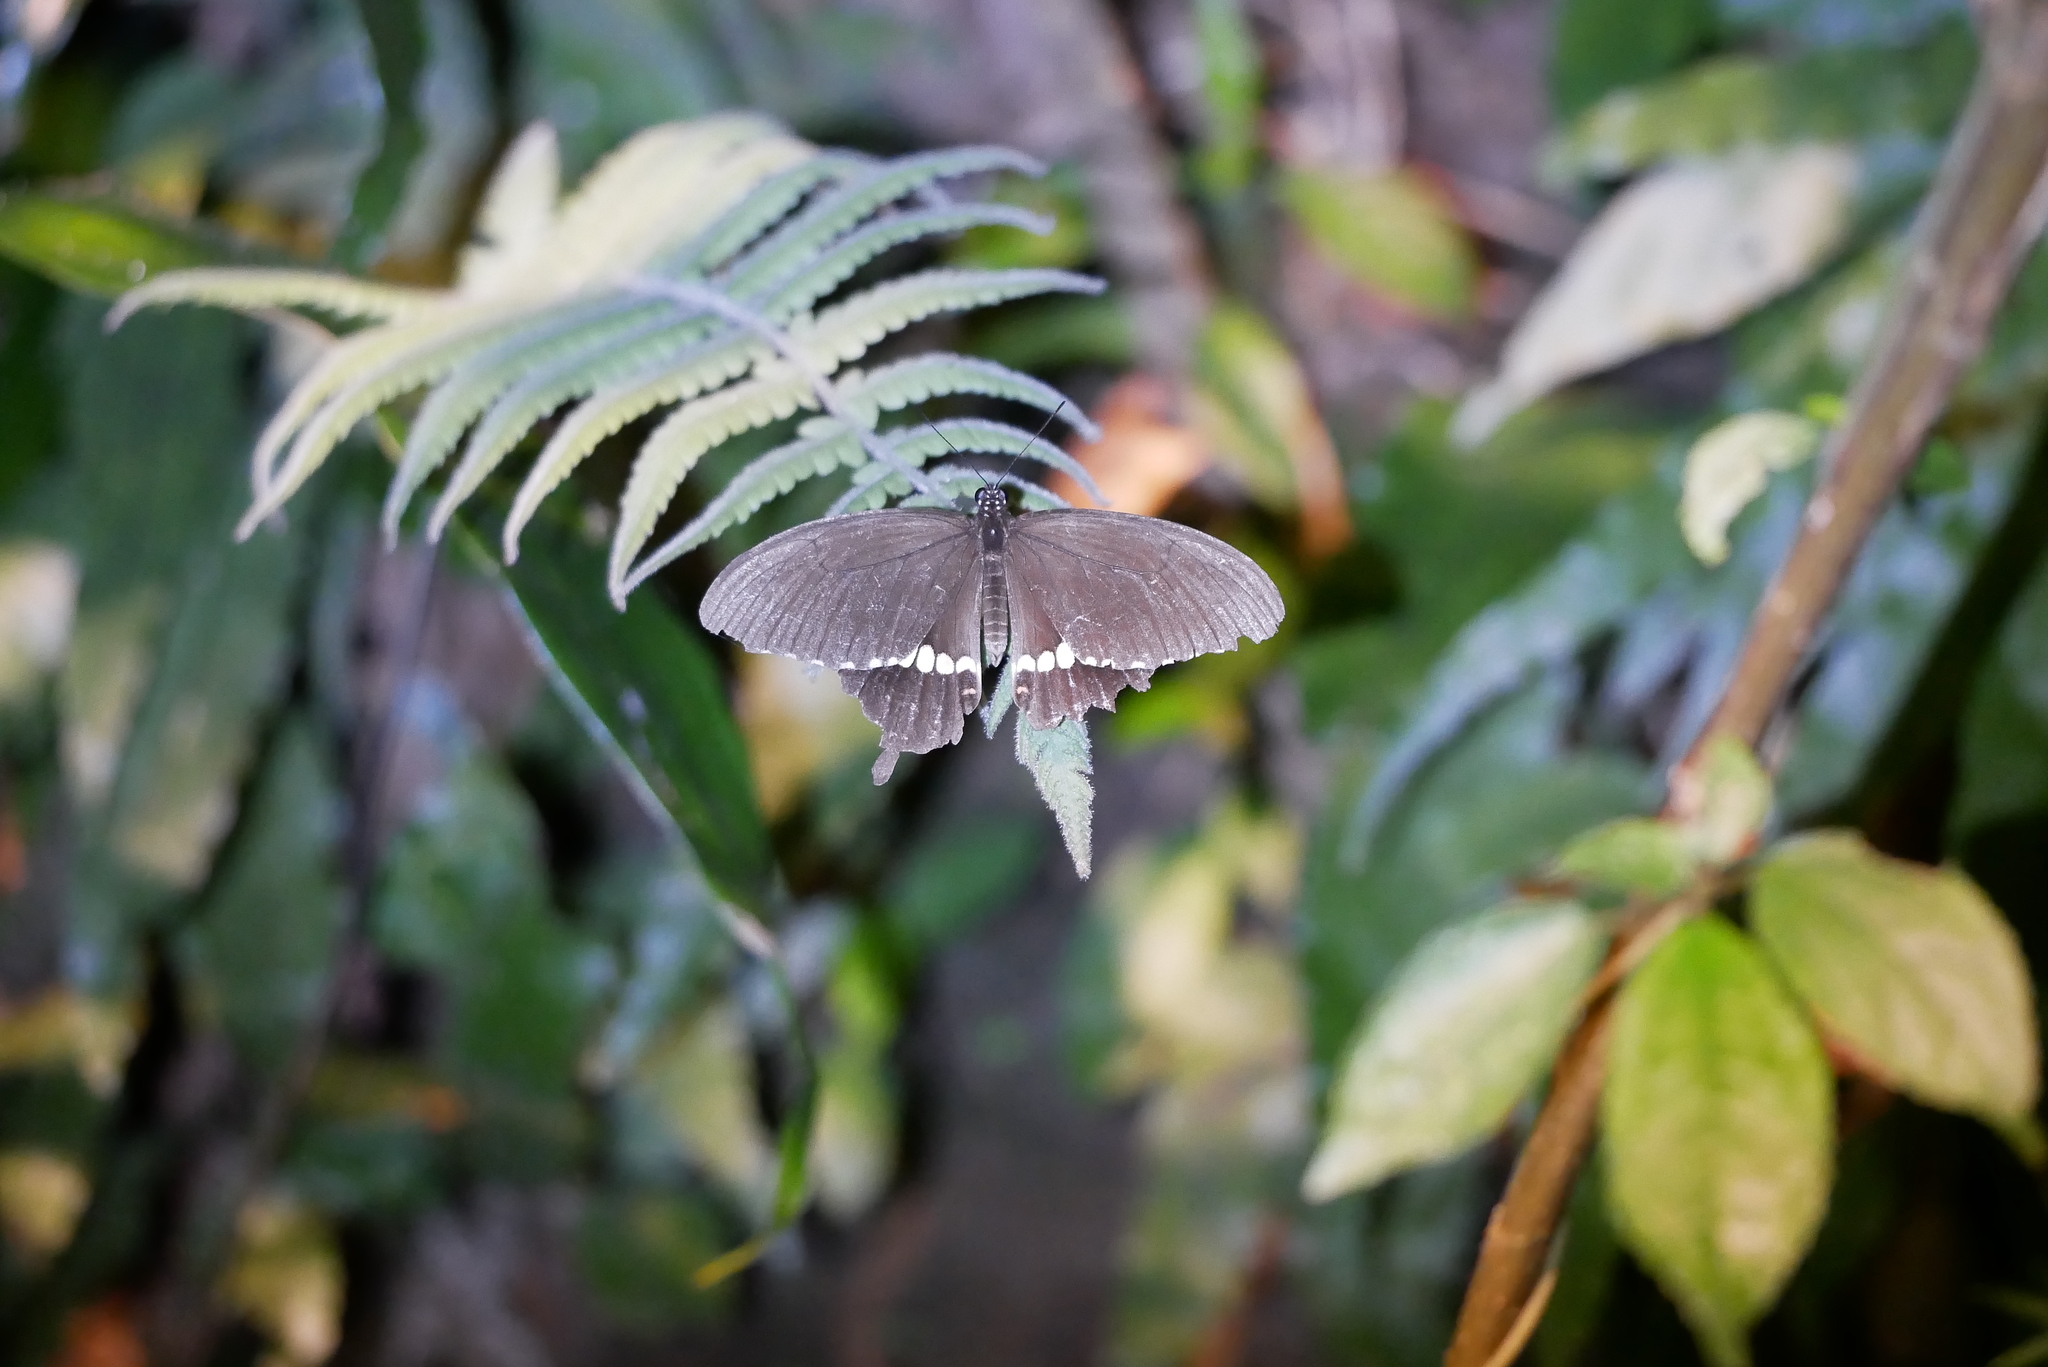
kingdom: Animalia
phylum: Arthropoda
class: Insecta
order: Lepidoptera
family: Papilionidae
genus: Papilio
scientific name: Papilio polytes
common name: Common mormon
